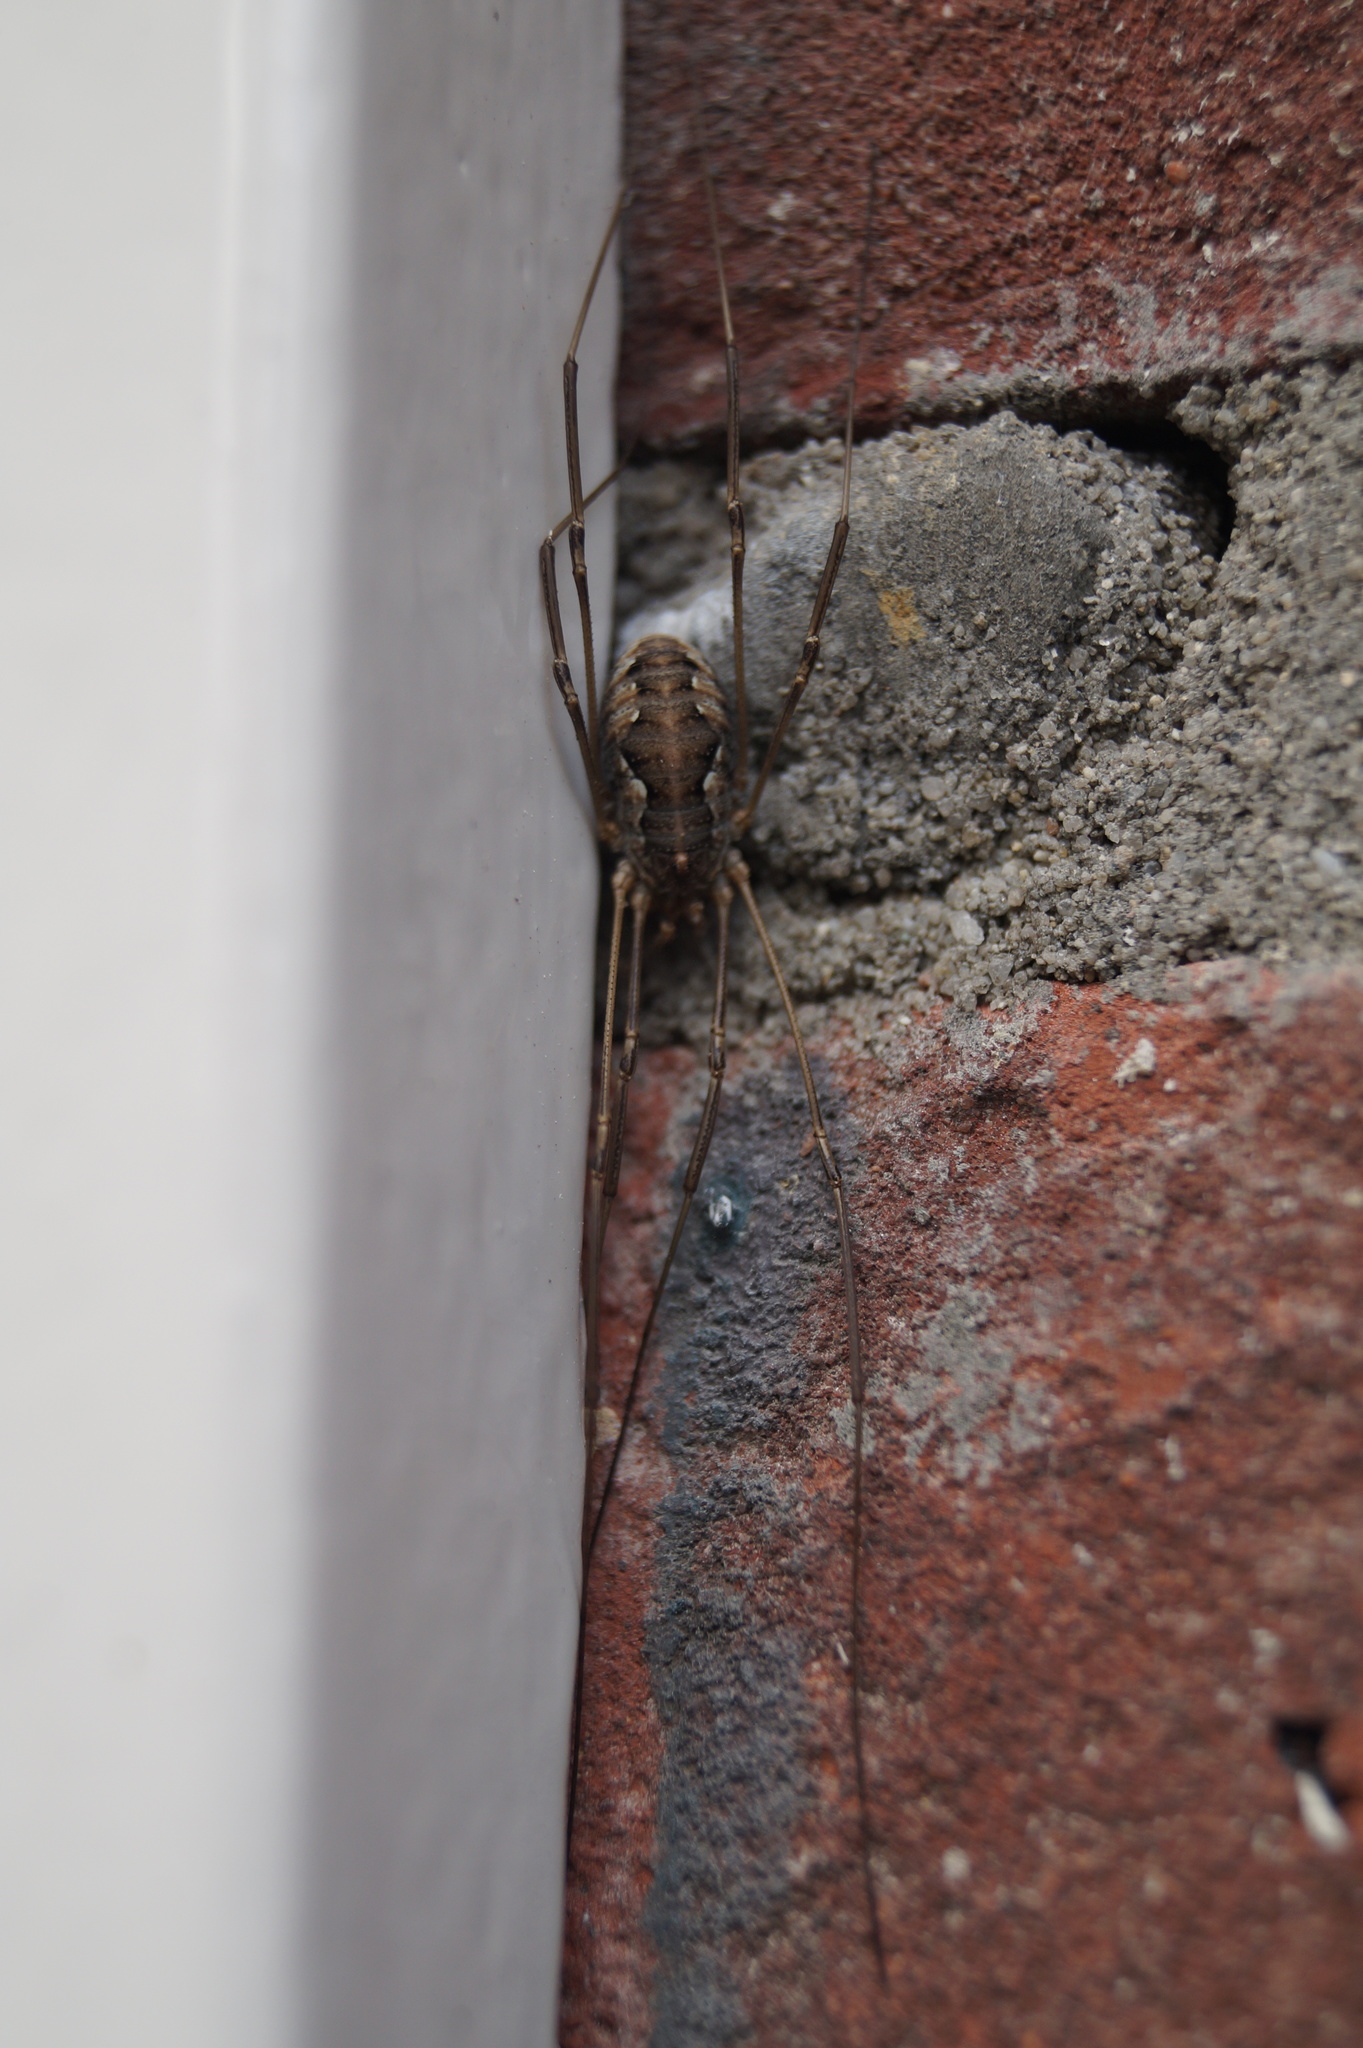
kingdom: Animalia
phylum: Arthropoda
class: Arachnida
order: Opiliones
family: Phalangiidae
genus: Phalangium
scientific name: Phalangium opilio
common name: Daddy longleg
